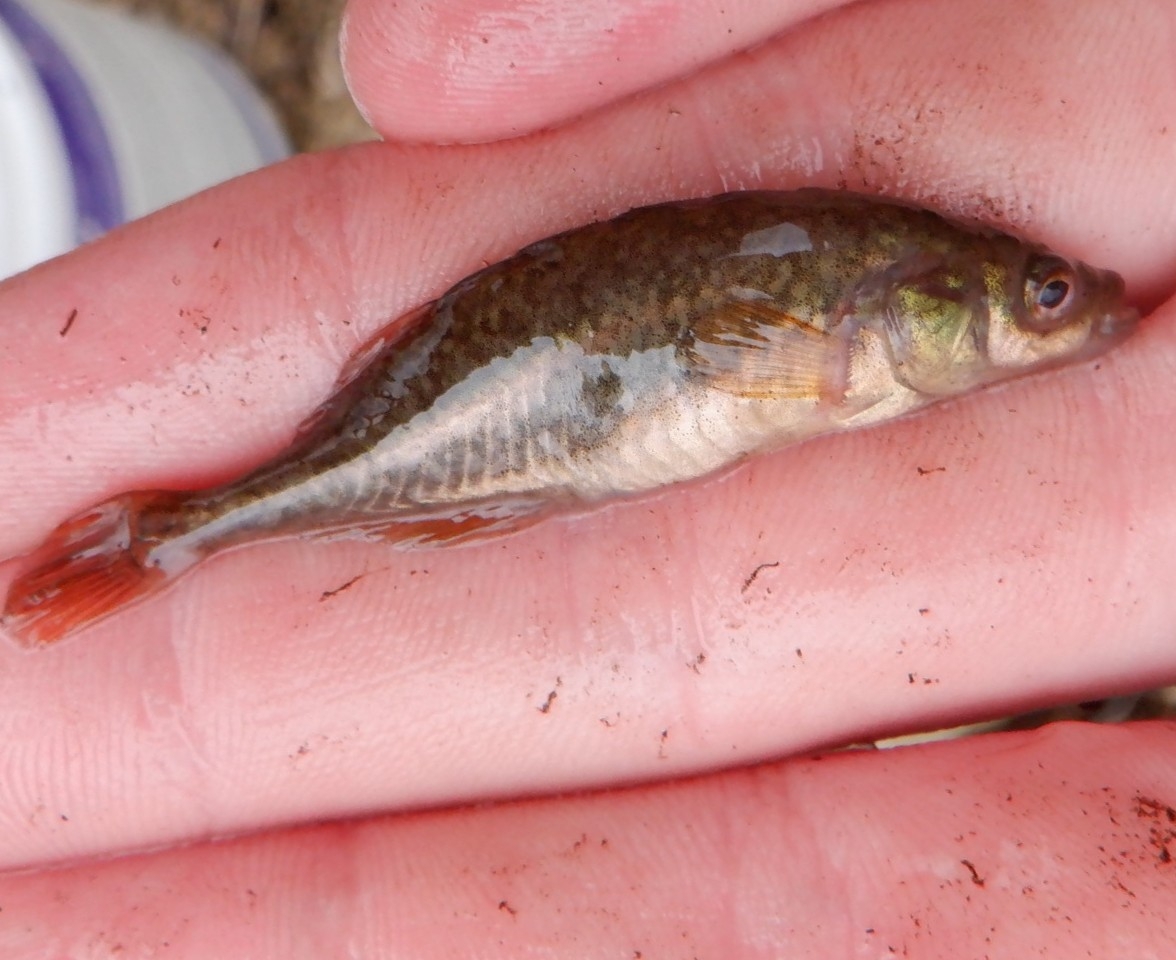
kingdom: Animalia
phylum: Chordata
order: Gasterosteiformes
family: Gasterosteidae
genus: Culaea
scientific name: Culaea inconstans
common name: Brook stickleback
